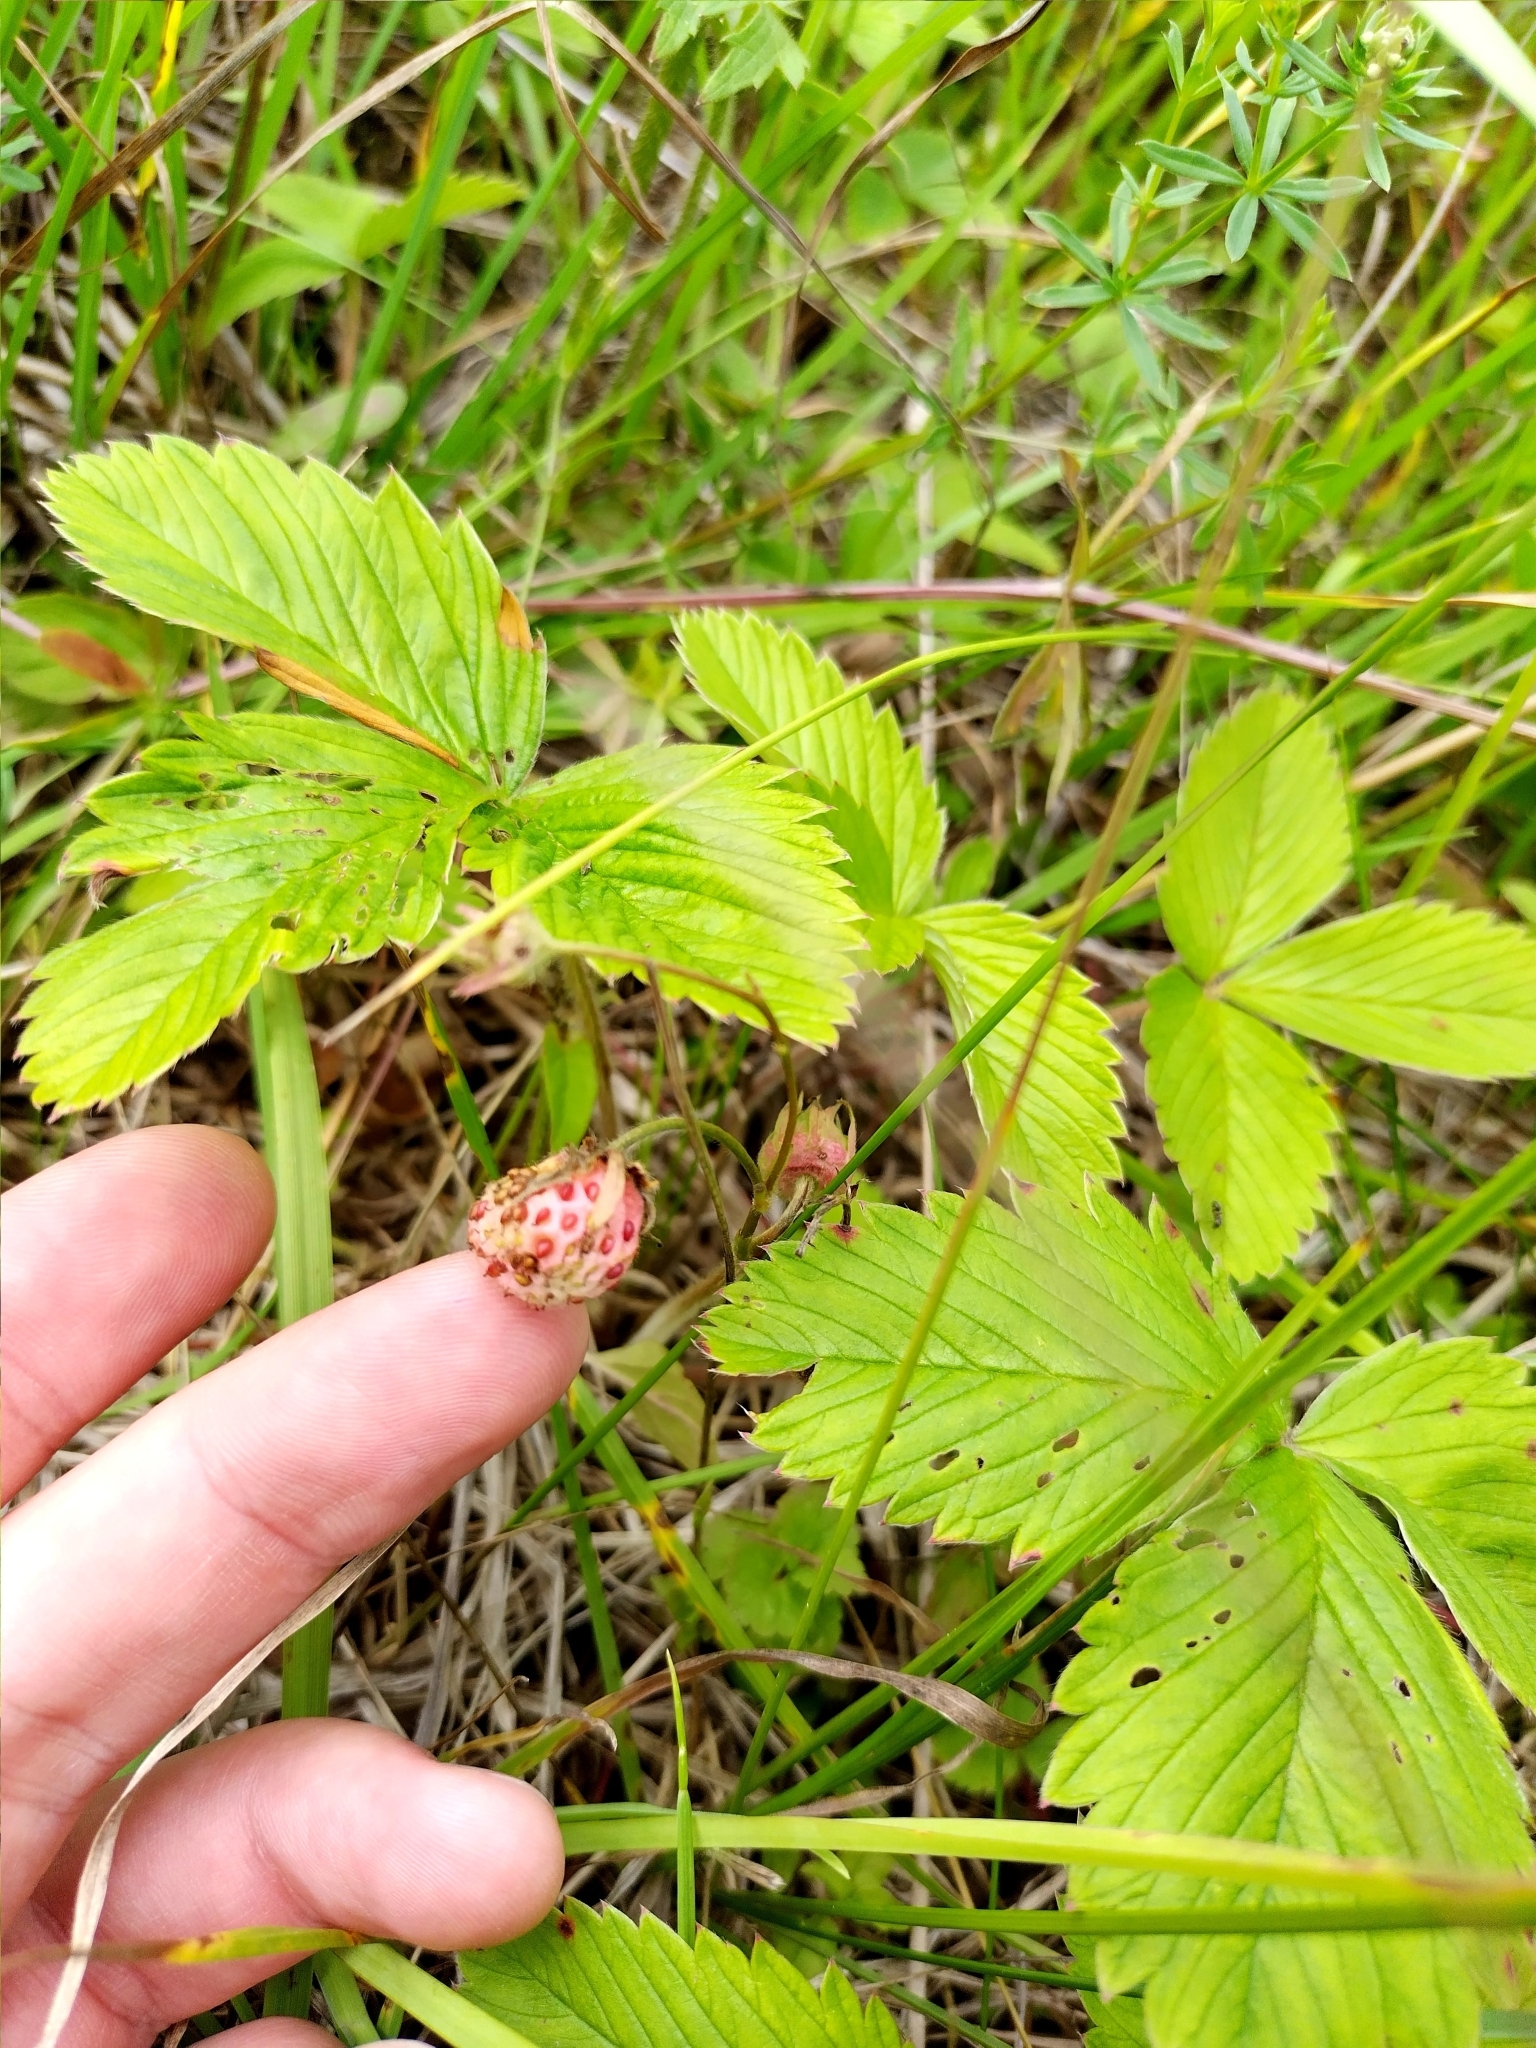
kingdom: Plantae
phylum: Tracheophyta
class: Magnoliopsida
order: Rosales
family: Rosaceae
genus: Fragaria
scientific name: Fragaria viridis
